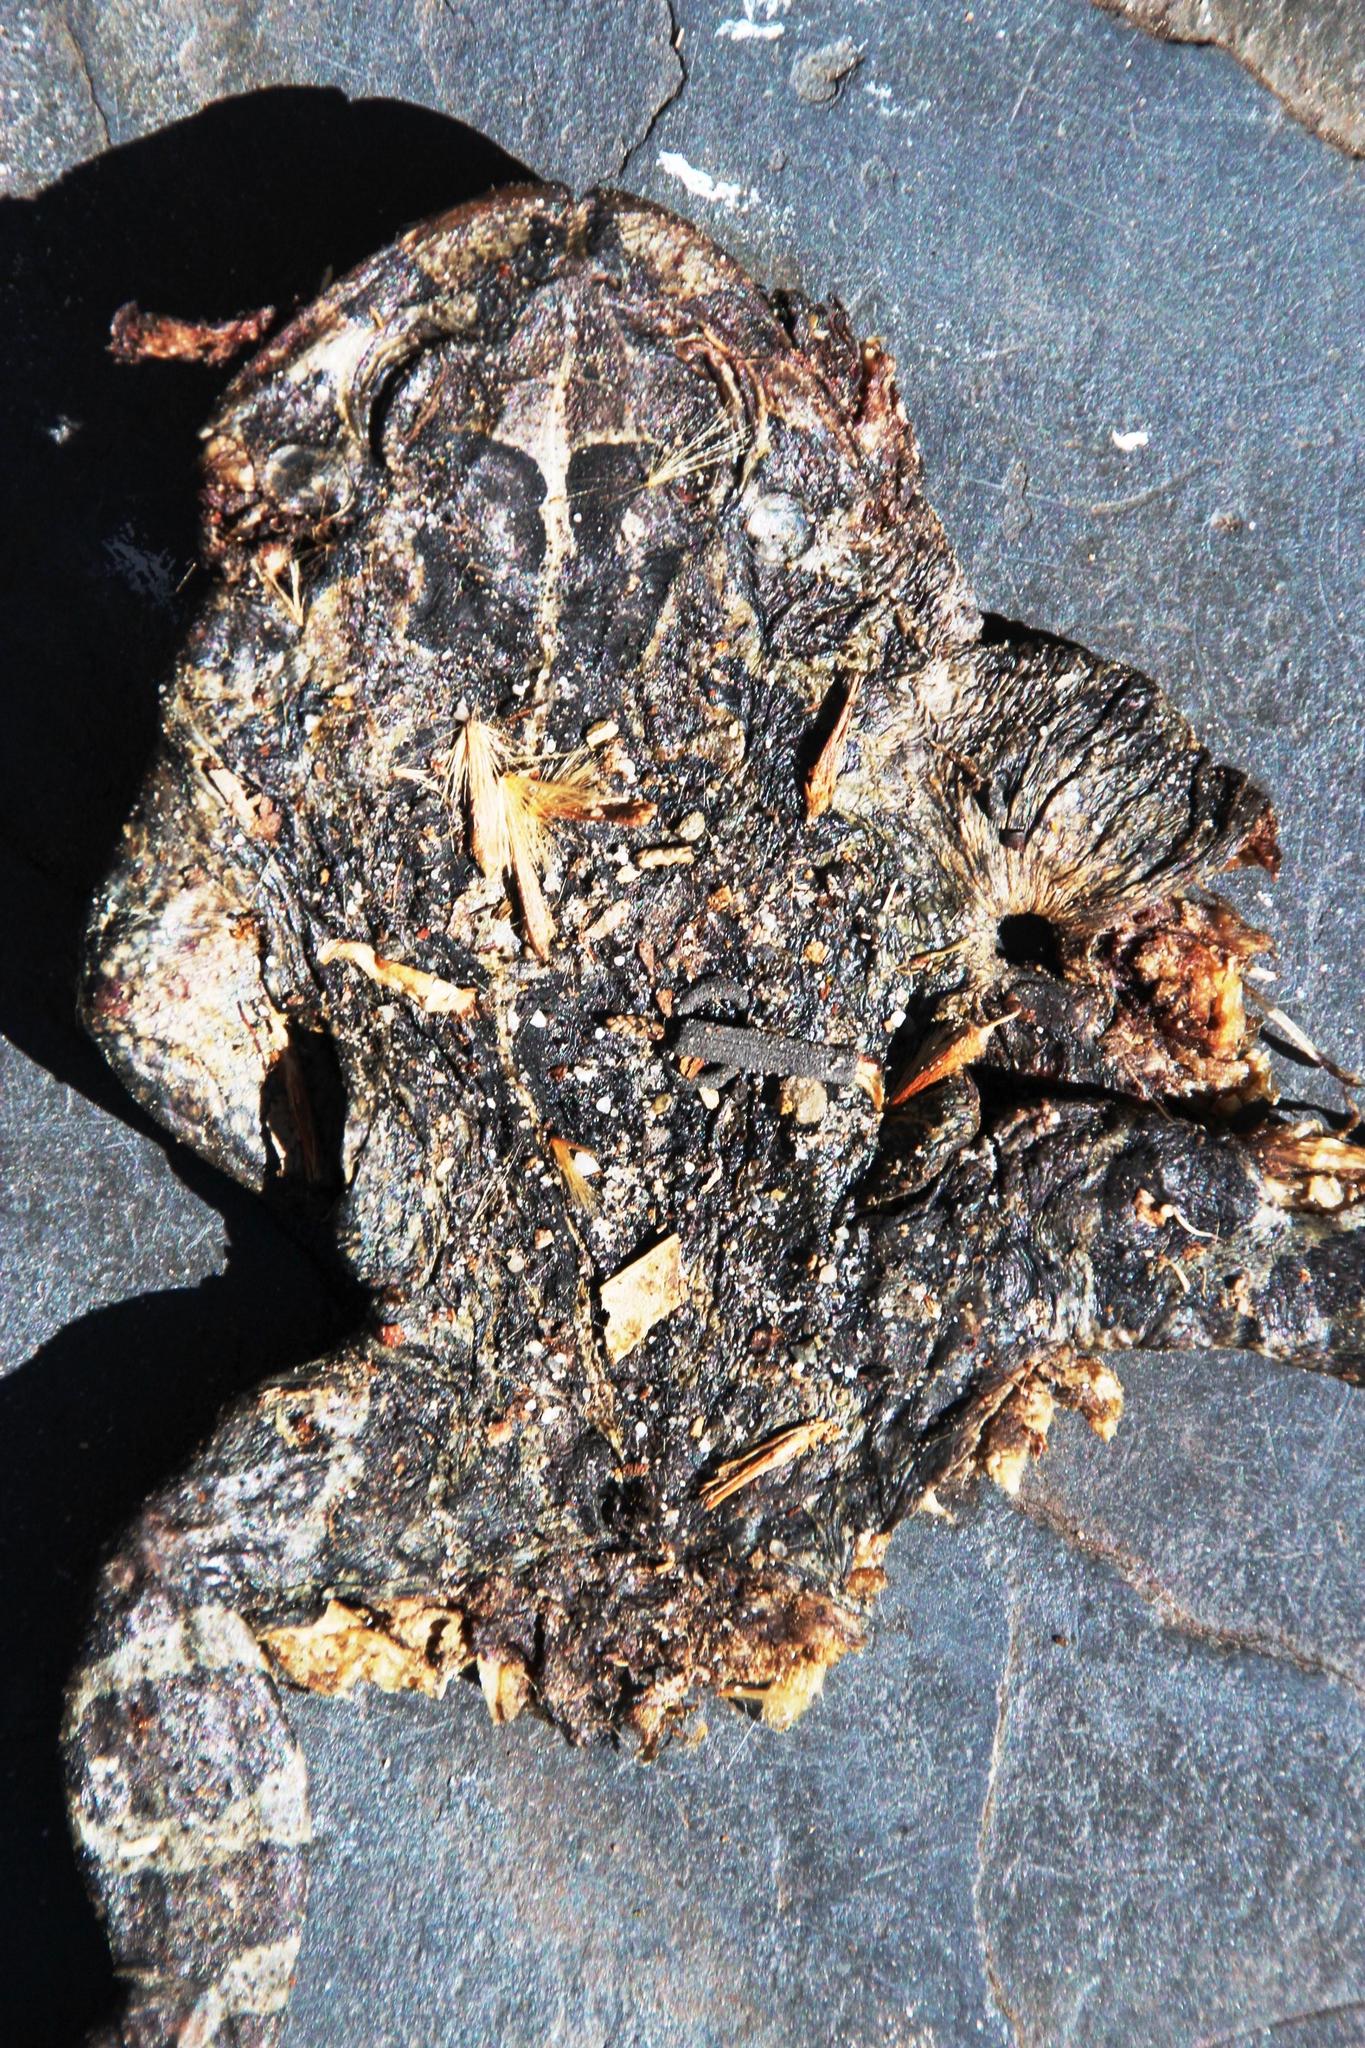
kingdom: Animalia
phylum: Chordata
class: Amphibia
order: Anura
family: Bufonidae
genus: Sclerophrys
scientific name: Sclerophrys pantherina
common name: Panther toad
